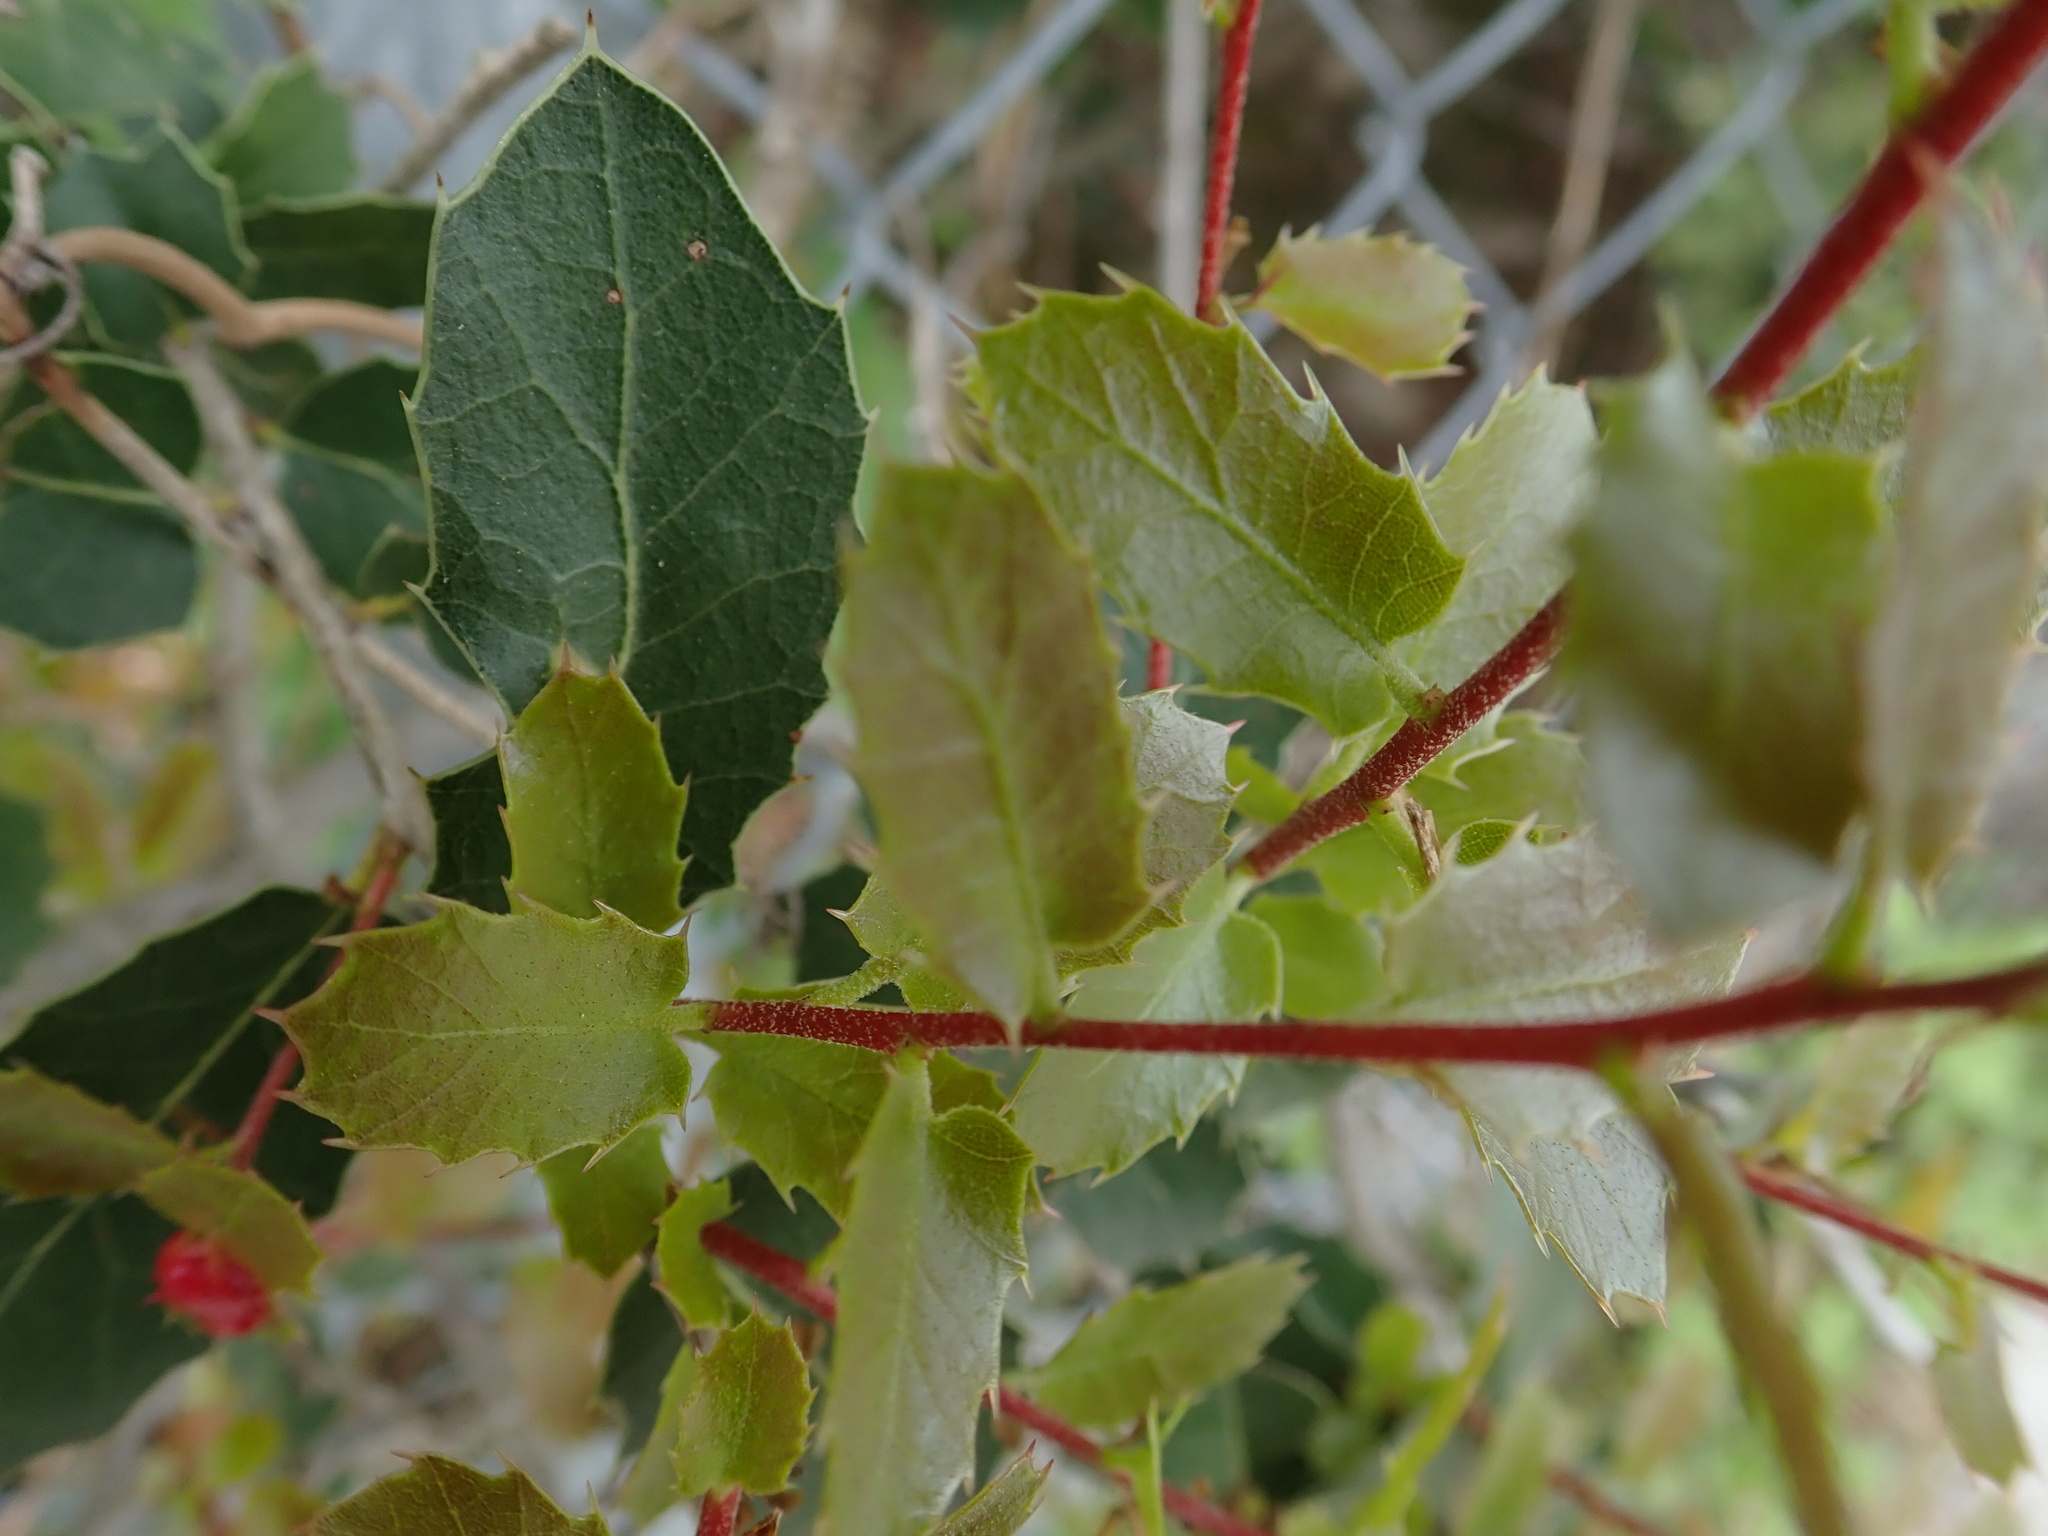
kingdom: Plantae
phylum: Tracheophyta
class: Magnoliopsida
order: Fagales
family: Fagaceae
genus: Quercus
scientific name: Quercus coccifera
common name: Kermes oak
